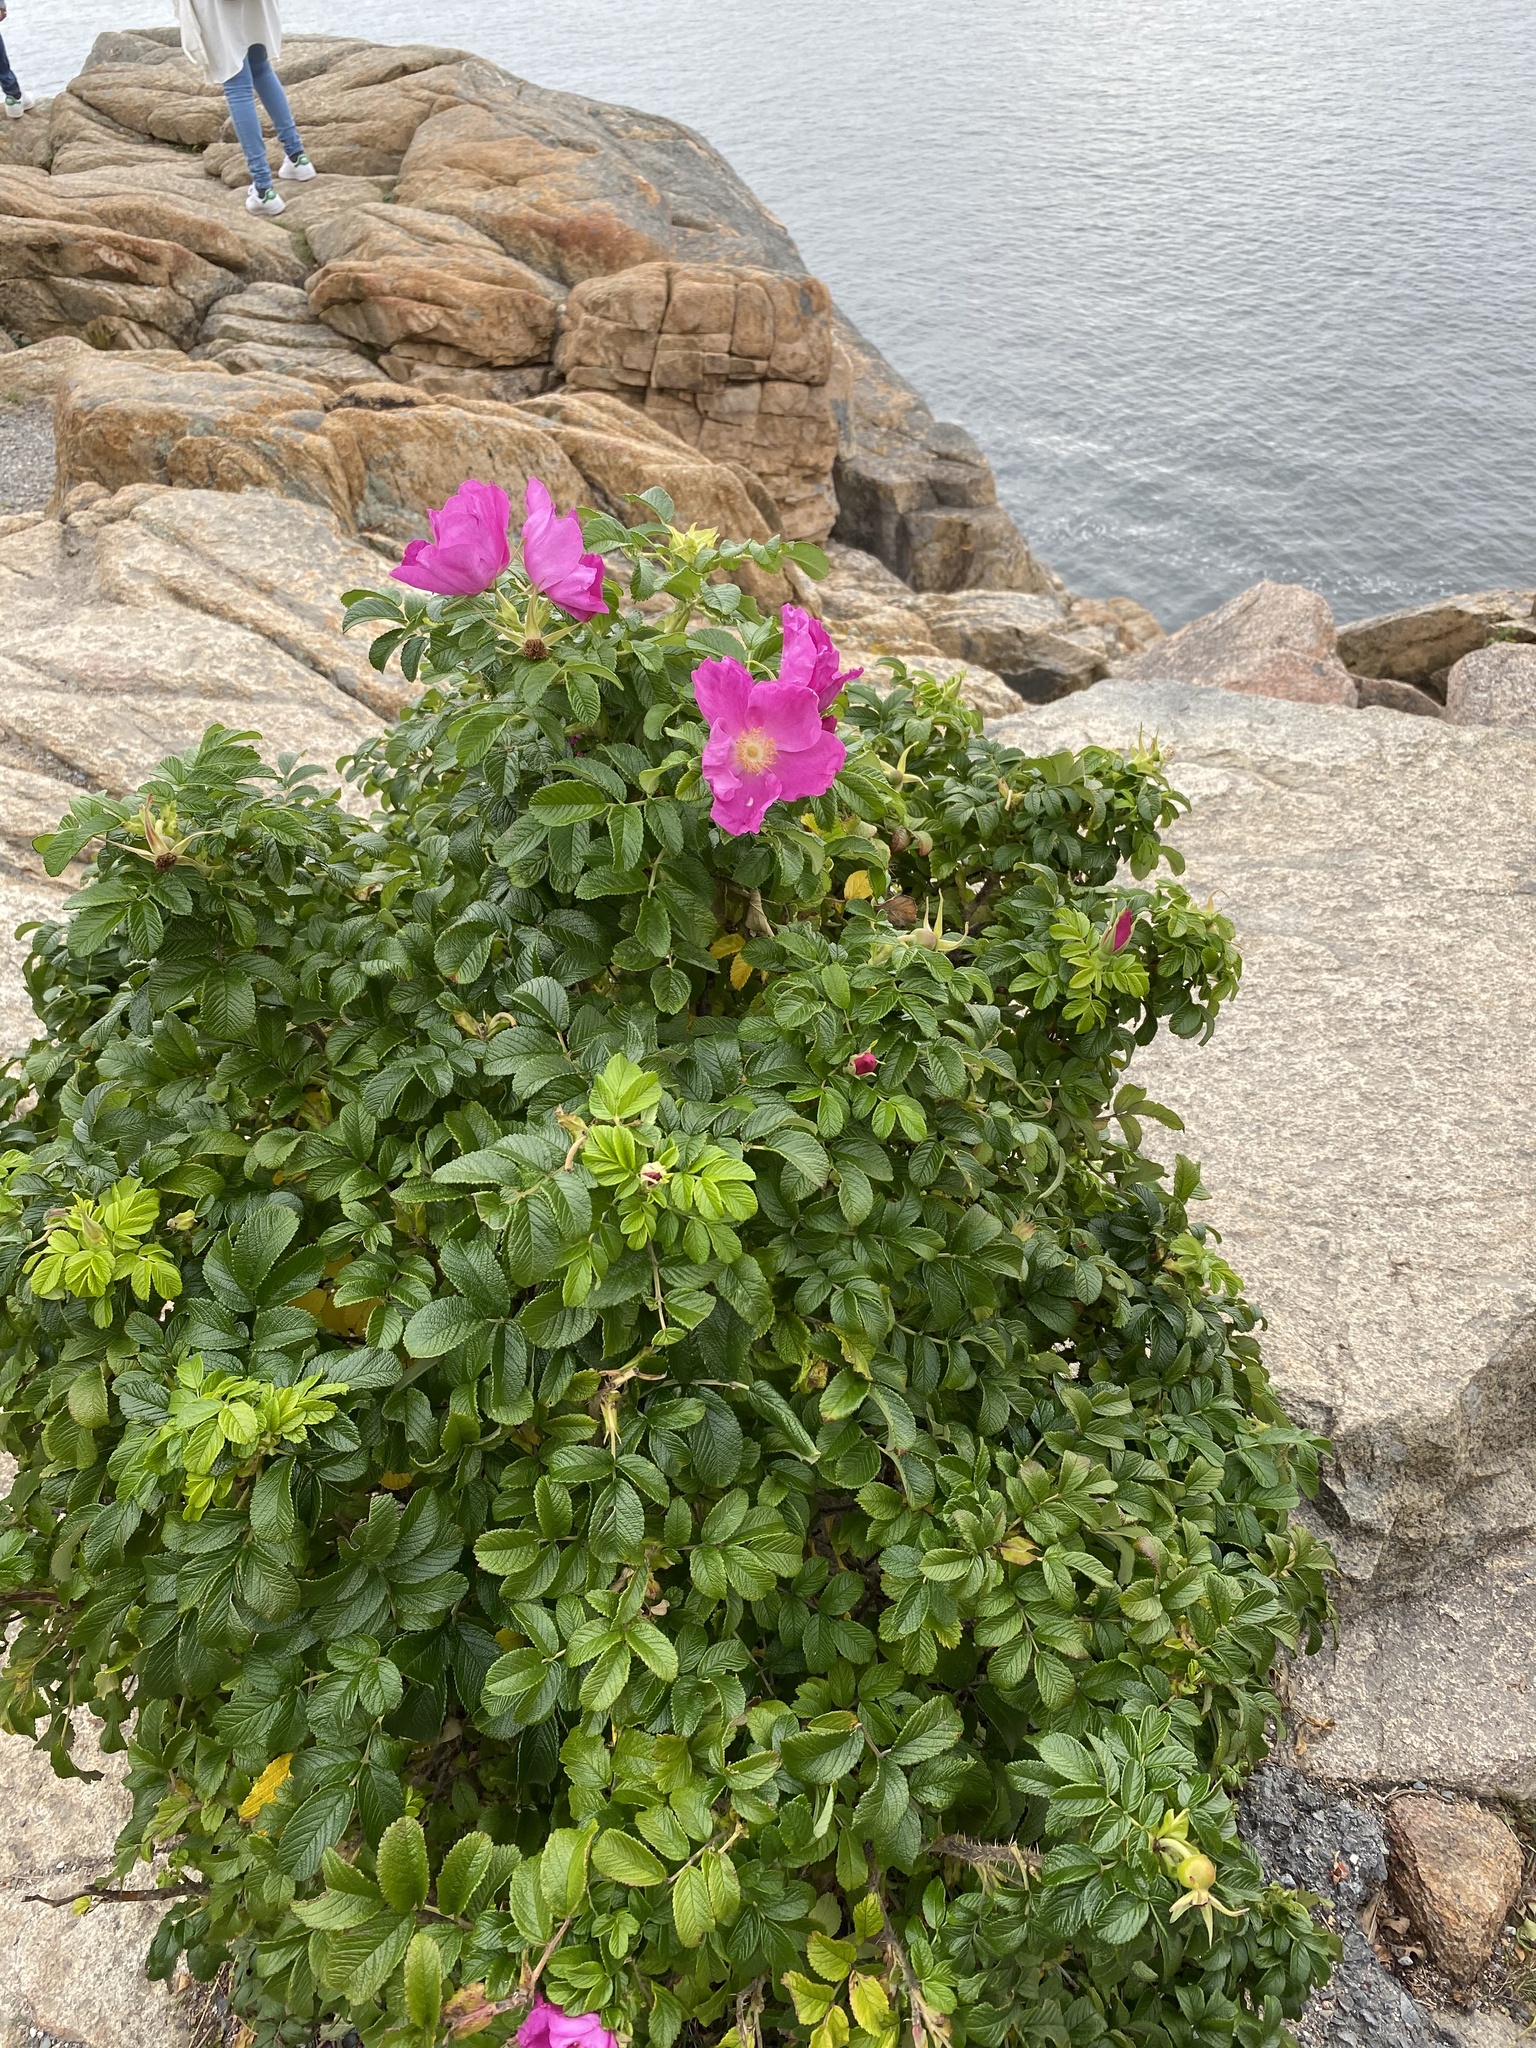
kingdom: Plantae
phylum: Tracheophyta
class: Magnoliopsida
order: Rosales
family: Rosaceae
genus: Rosa
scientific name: Rosa rugosa
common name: Japanese rose
